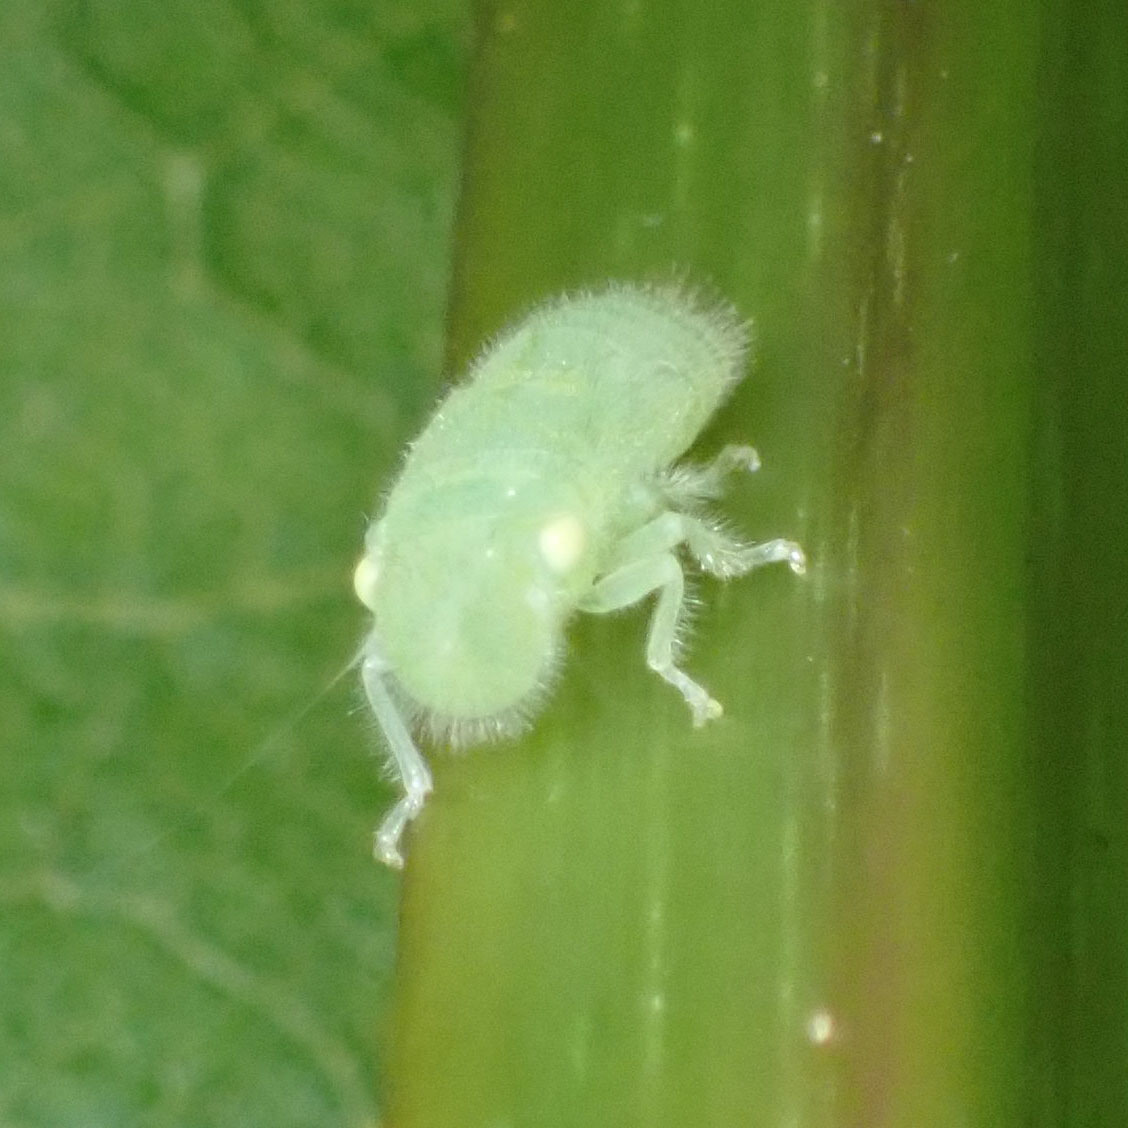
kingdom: Animalia
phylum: Arthropoda
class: Insecta
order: Hemiptera
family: Cicadellidae
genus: Paraulacizes
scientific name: Paraulacizes irrorata
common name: Speckled sharpshooter
